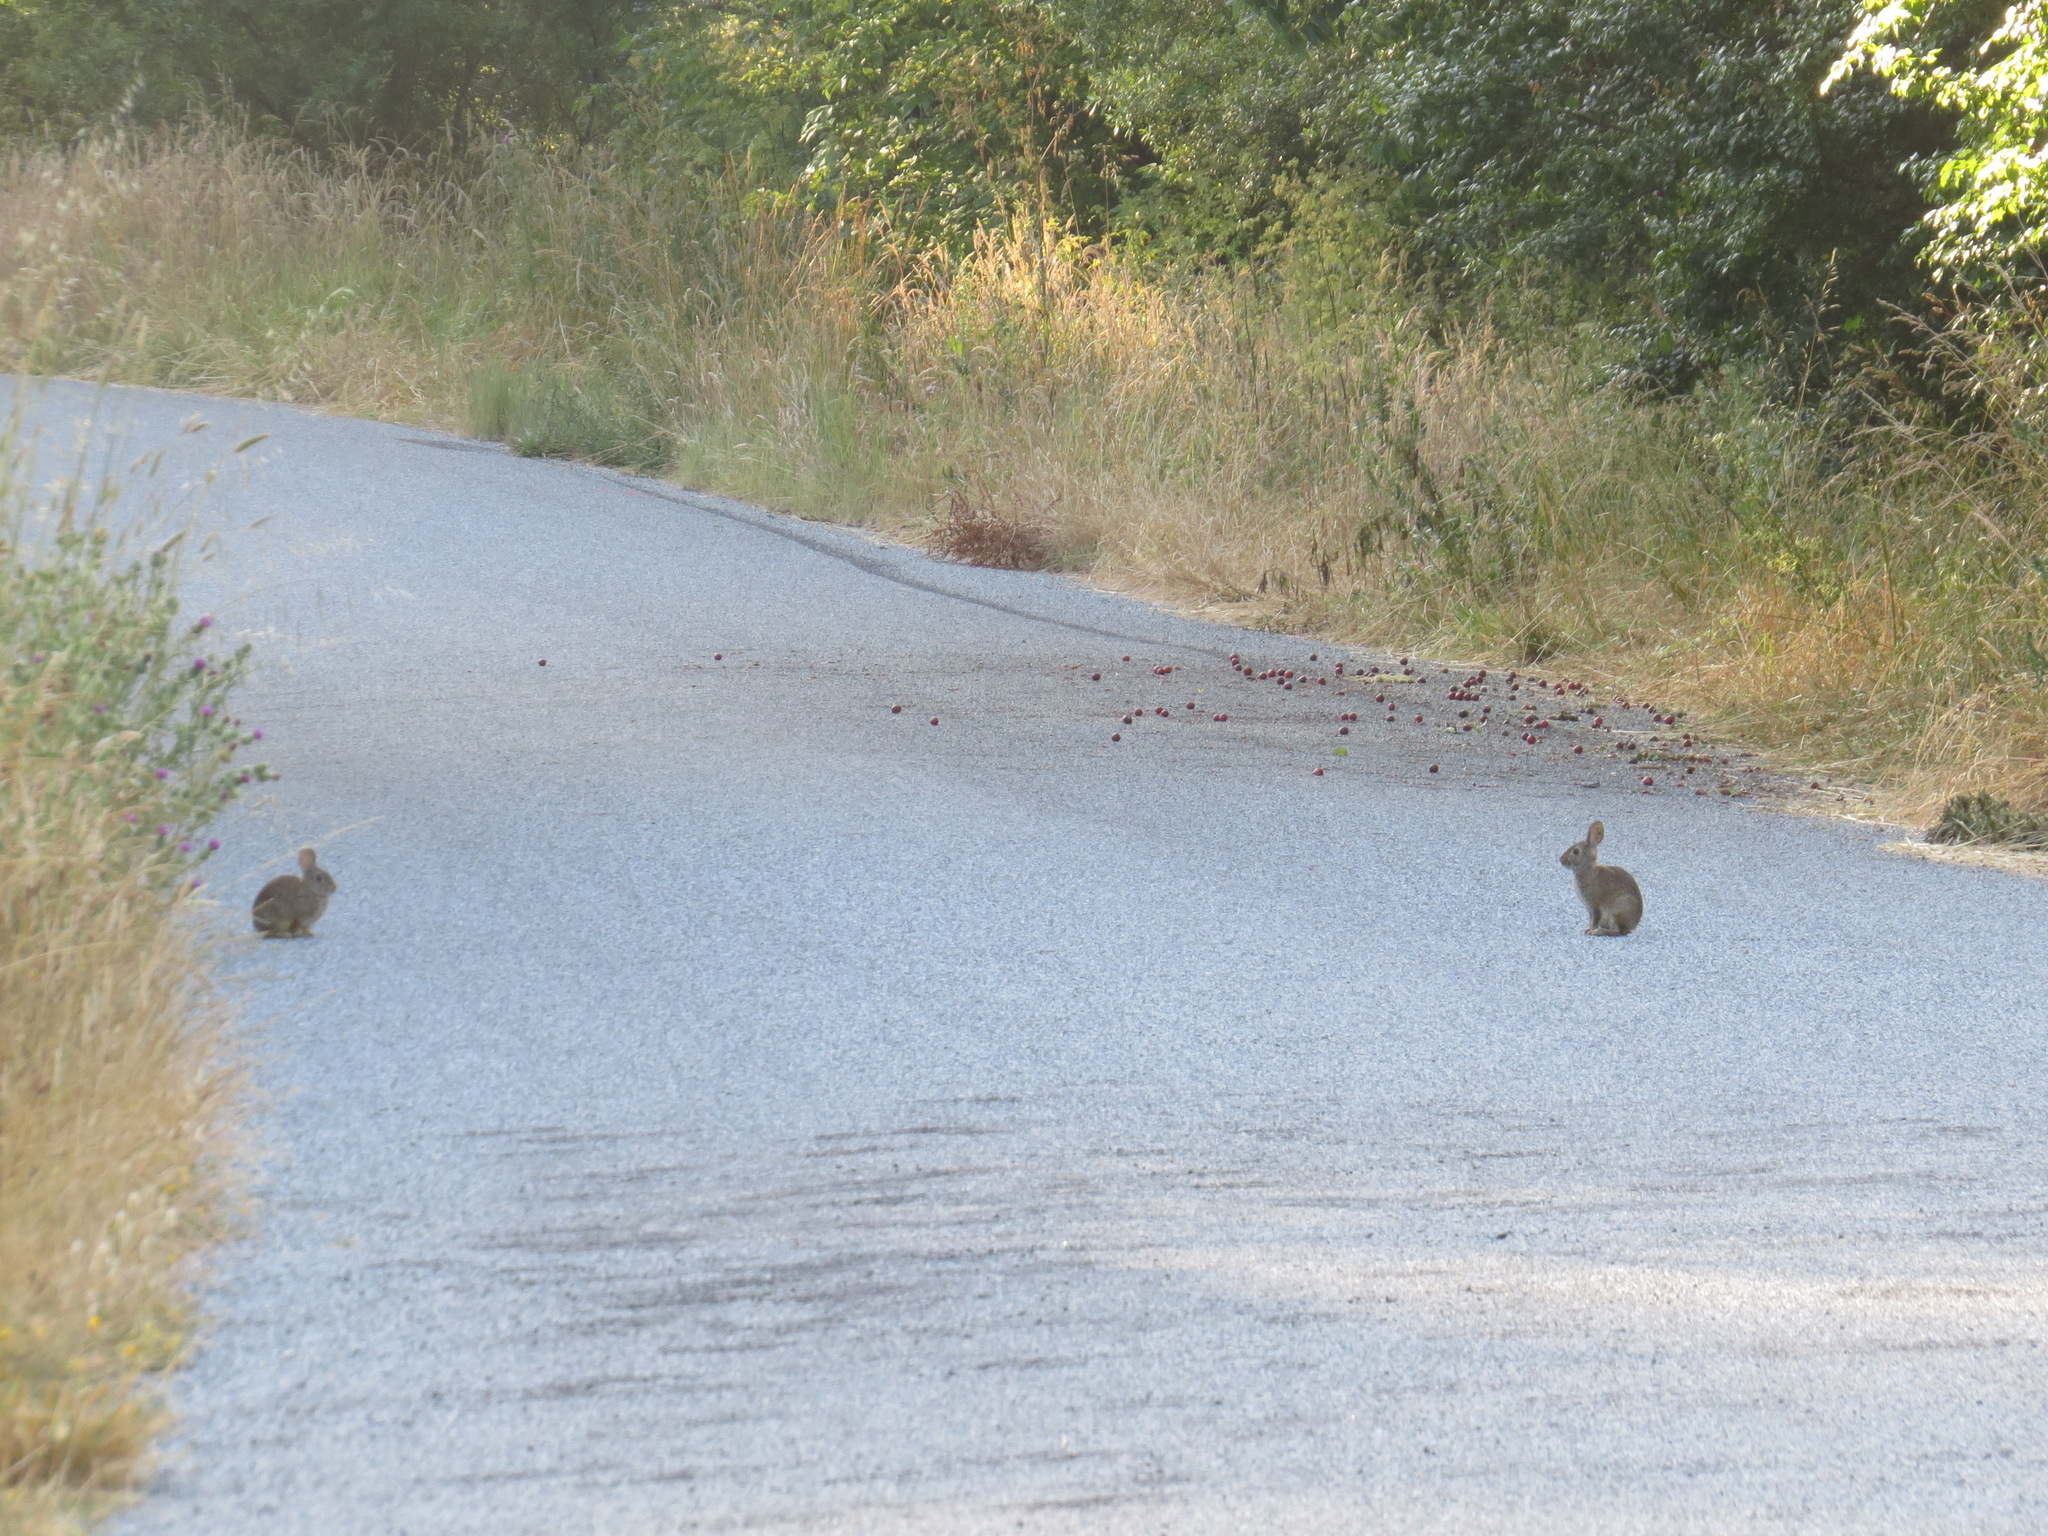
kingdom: Animalia
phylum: Chordata
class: Mammalia
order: Lagomorpha
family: Leporidae
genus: Sylvilagus
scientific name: Sylvilagus bachmani
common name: Brush rabbit
